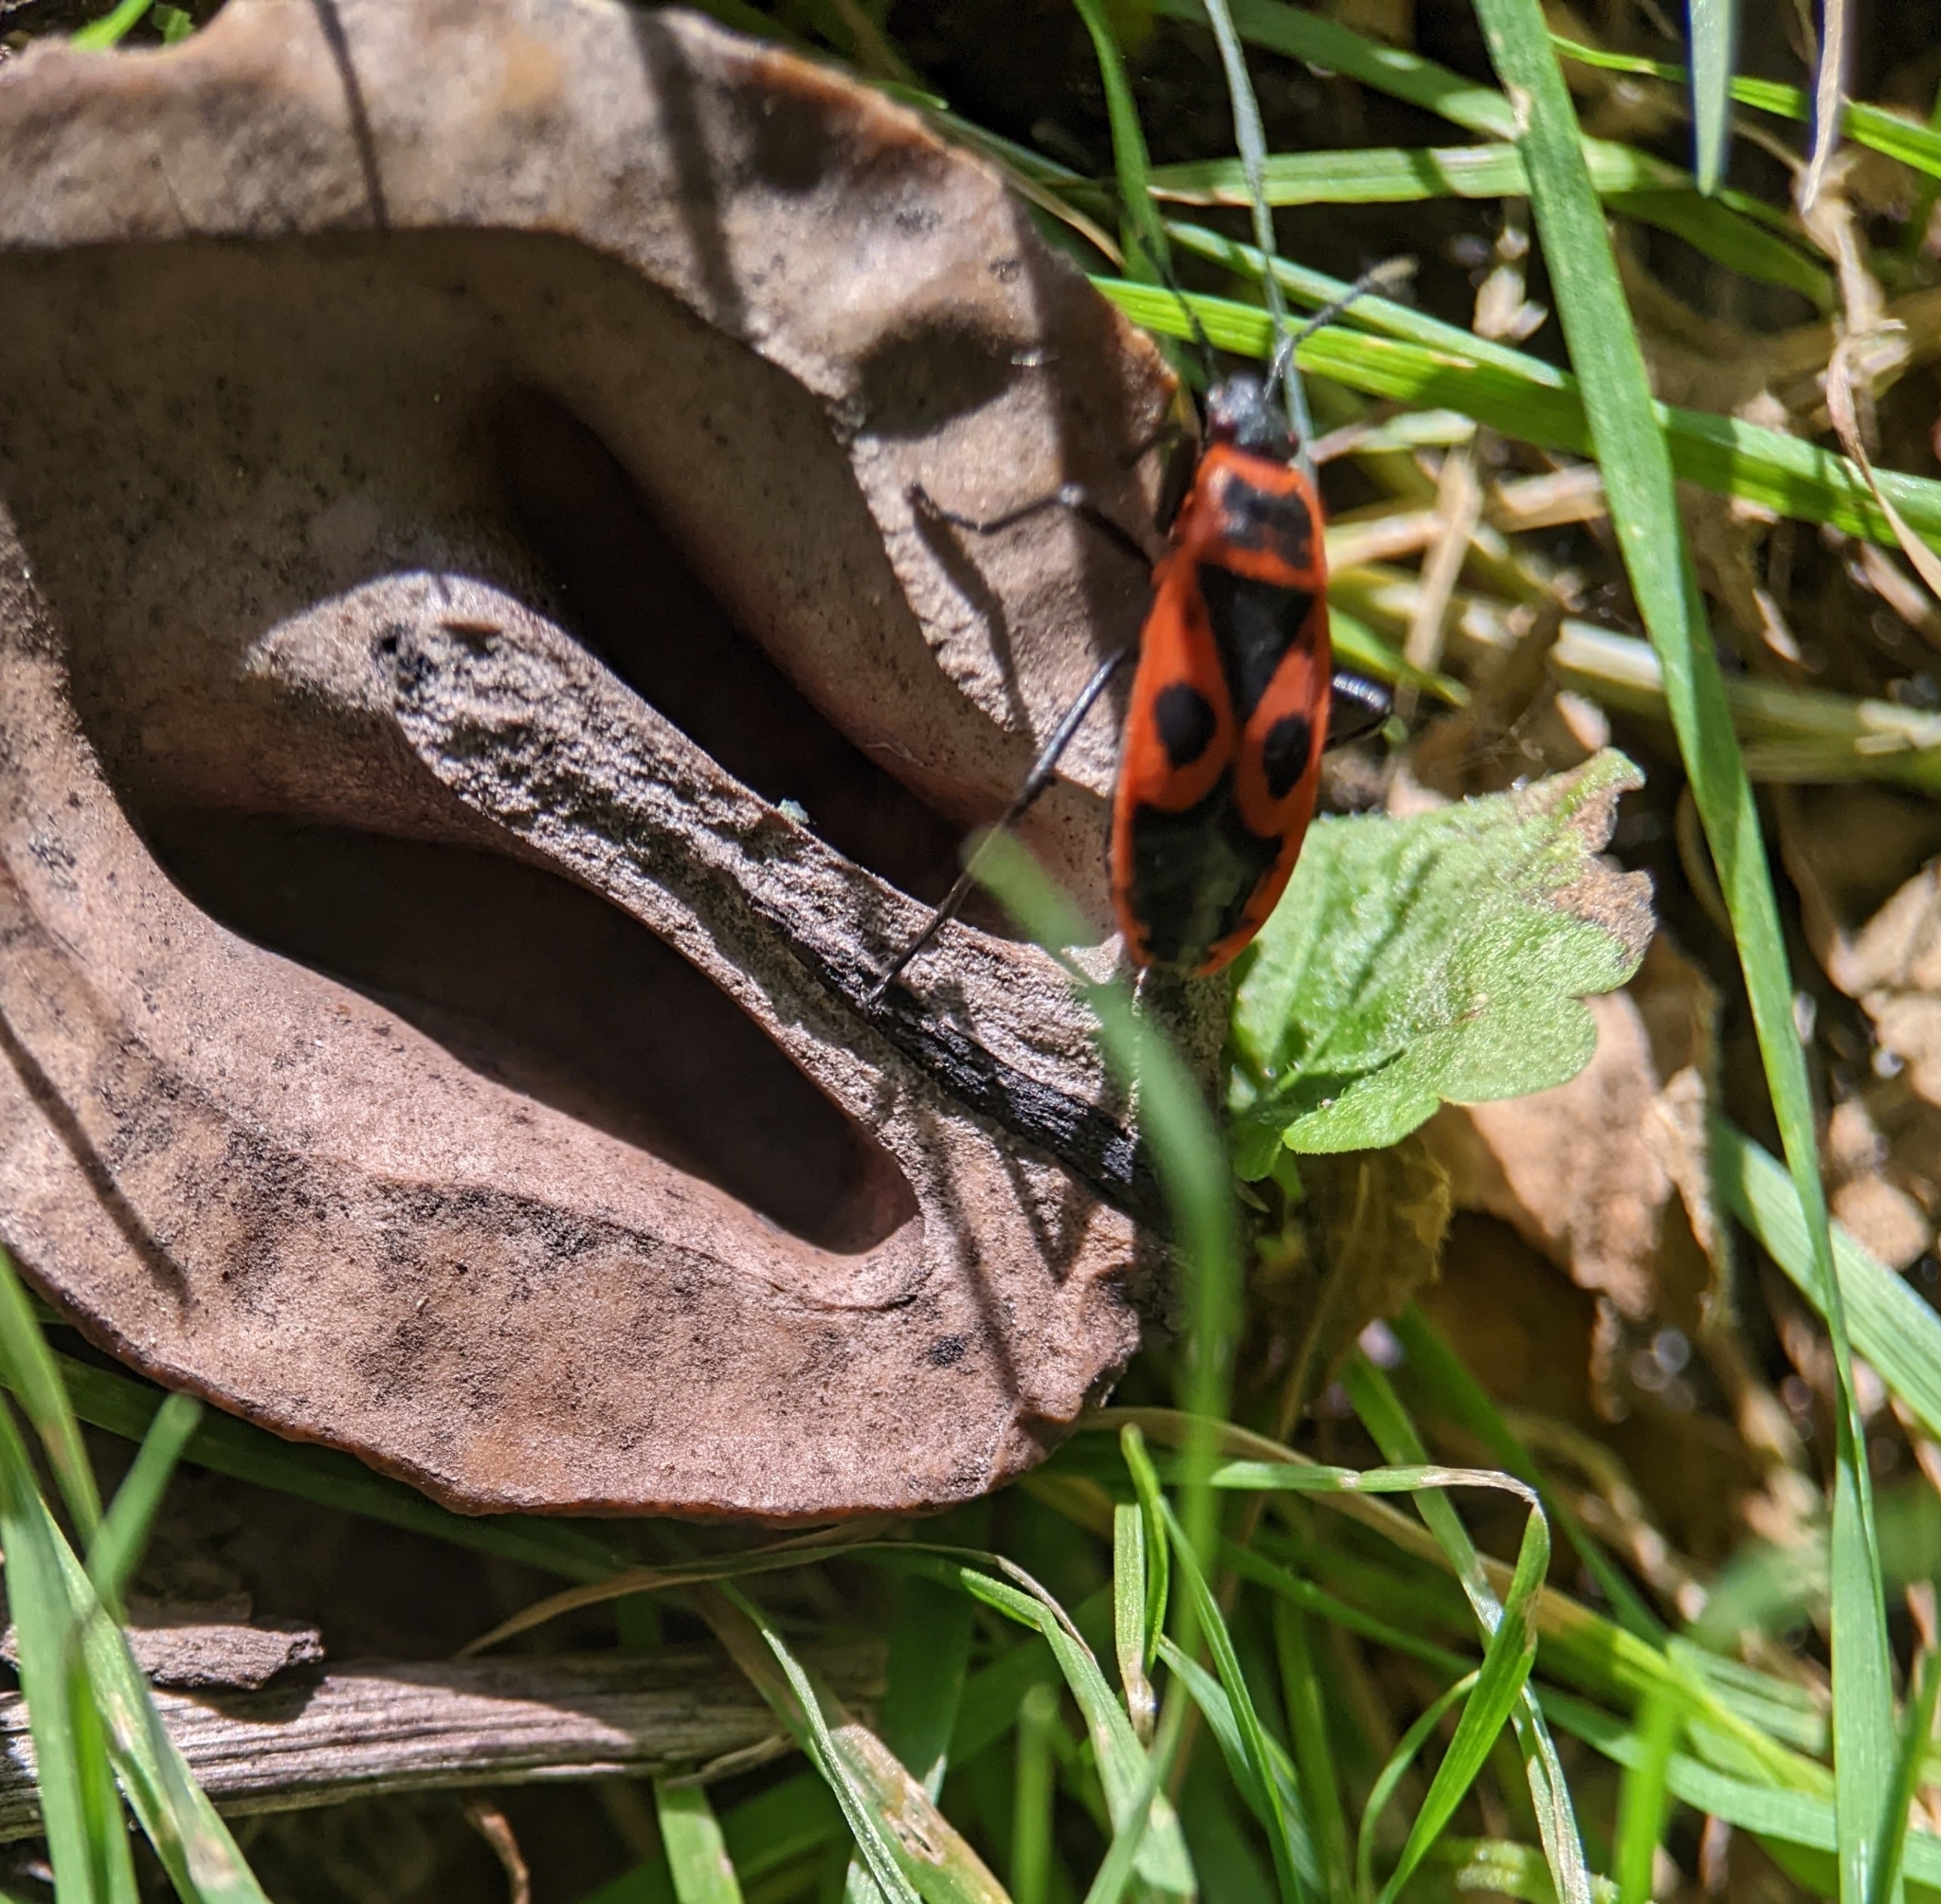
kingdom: Animalia
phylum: Arthropoda
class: Insecta
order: Hemiptera
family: Pyrrhocoridae
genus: Pyrrhocoris
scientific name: Pyrrhocoris apterus
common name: Firebug
